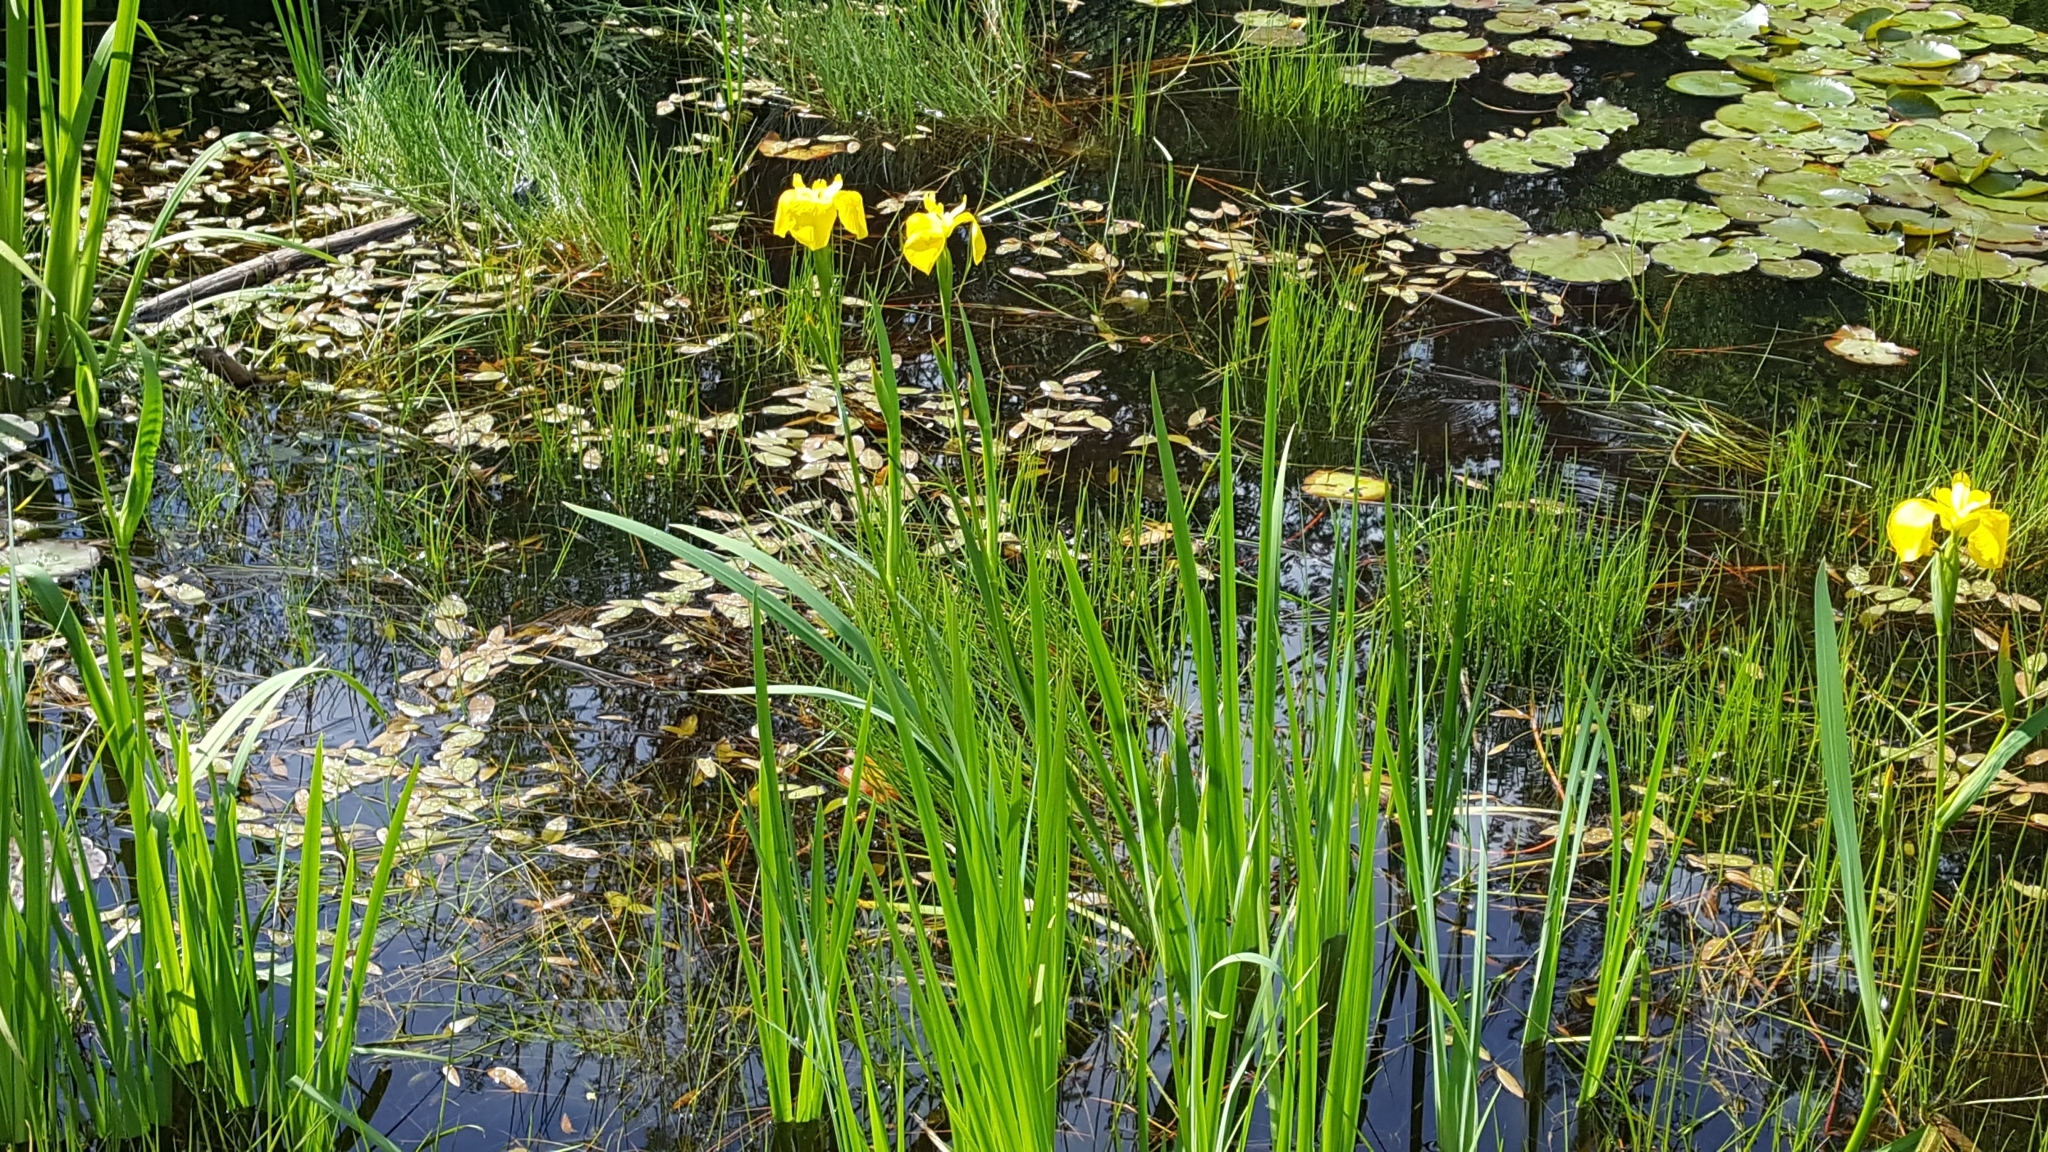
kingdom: Plantae
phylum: Tracheophyta
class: Liliopsida
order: Asparagales
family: Iridaceae
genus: Iris
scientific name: Iris pseudacorus
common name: Yellow flag
